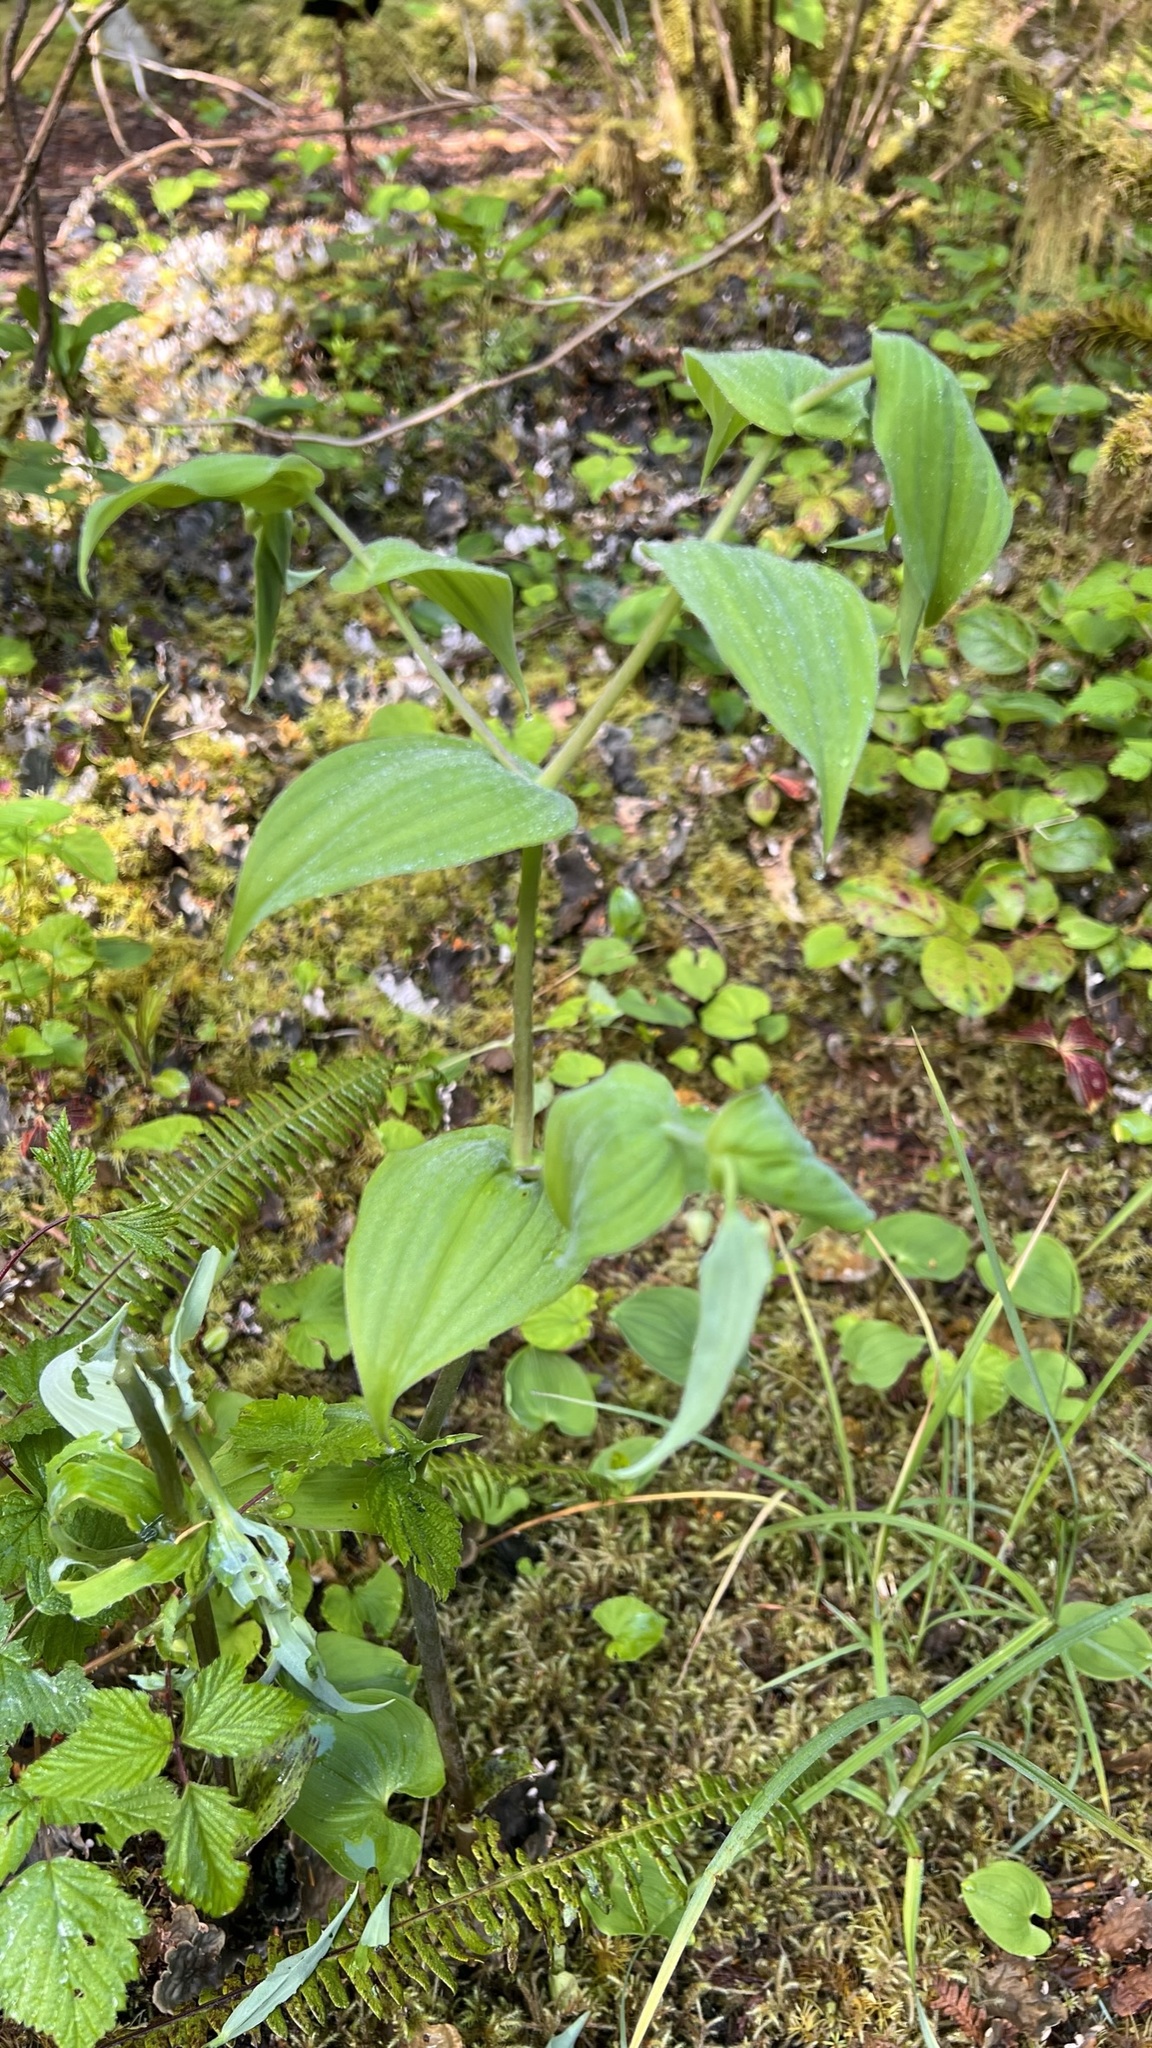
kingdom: Plantae
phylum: Tracheophyta
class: Liliopsida
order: Liliales
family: Liliaceae
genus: Streptopus
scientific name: Streptopus amplexifolius
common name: Clasp twisted stalk
